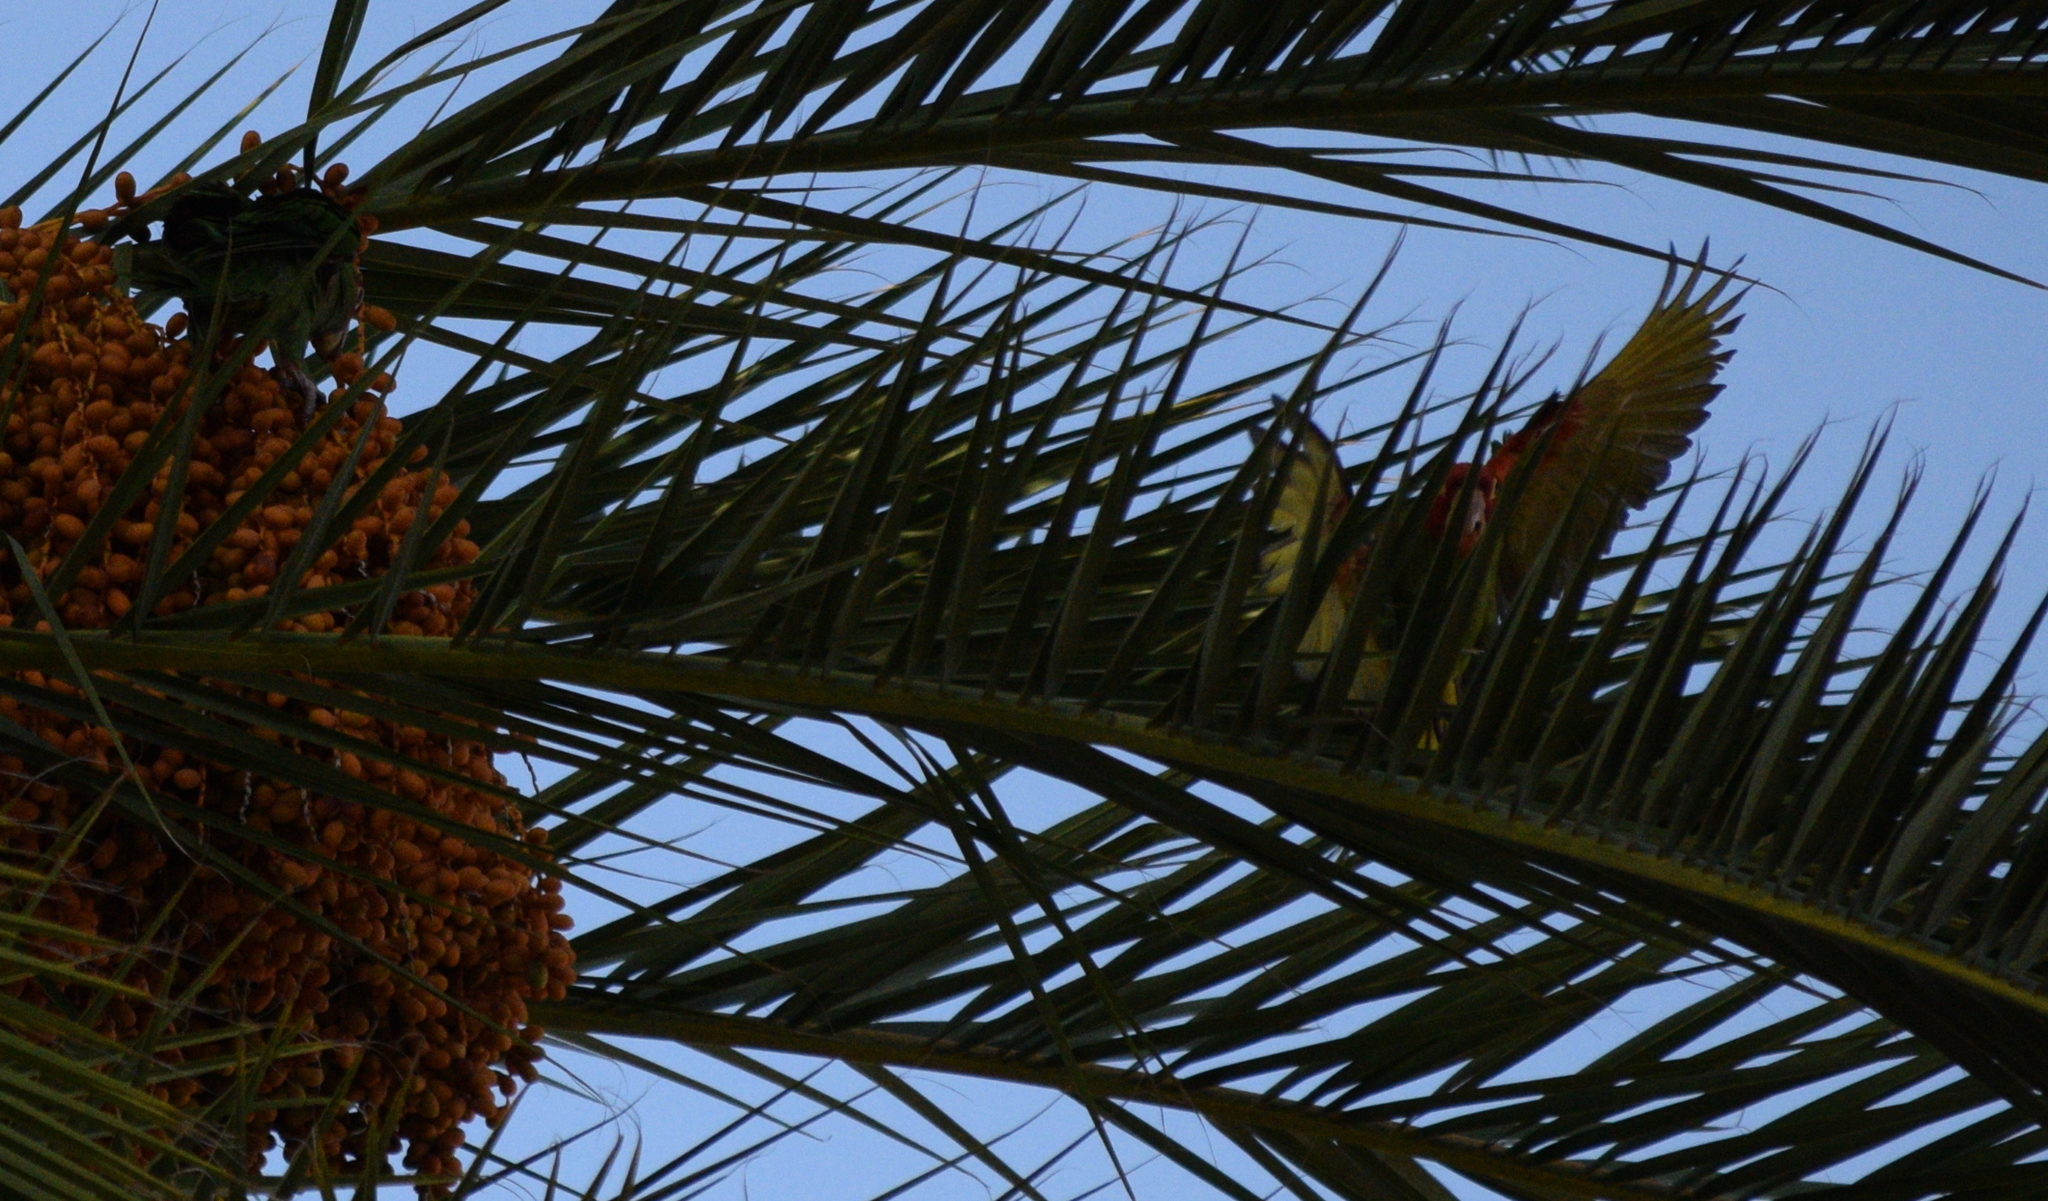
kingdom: Animalia
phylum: Chordata
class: Aves
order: Psittaciformes
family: Psittacidae
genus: Aratinga
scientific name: Aratinga erythrogenys
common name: Red-masked parakeet
